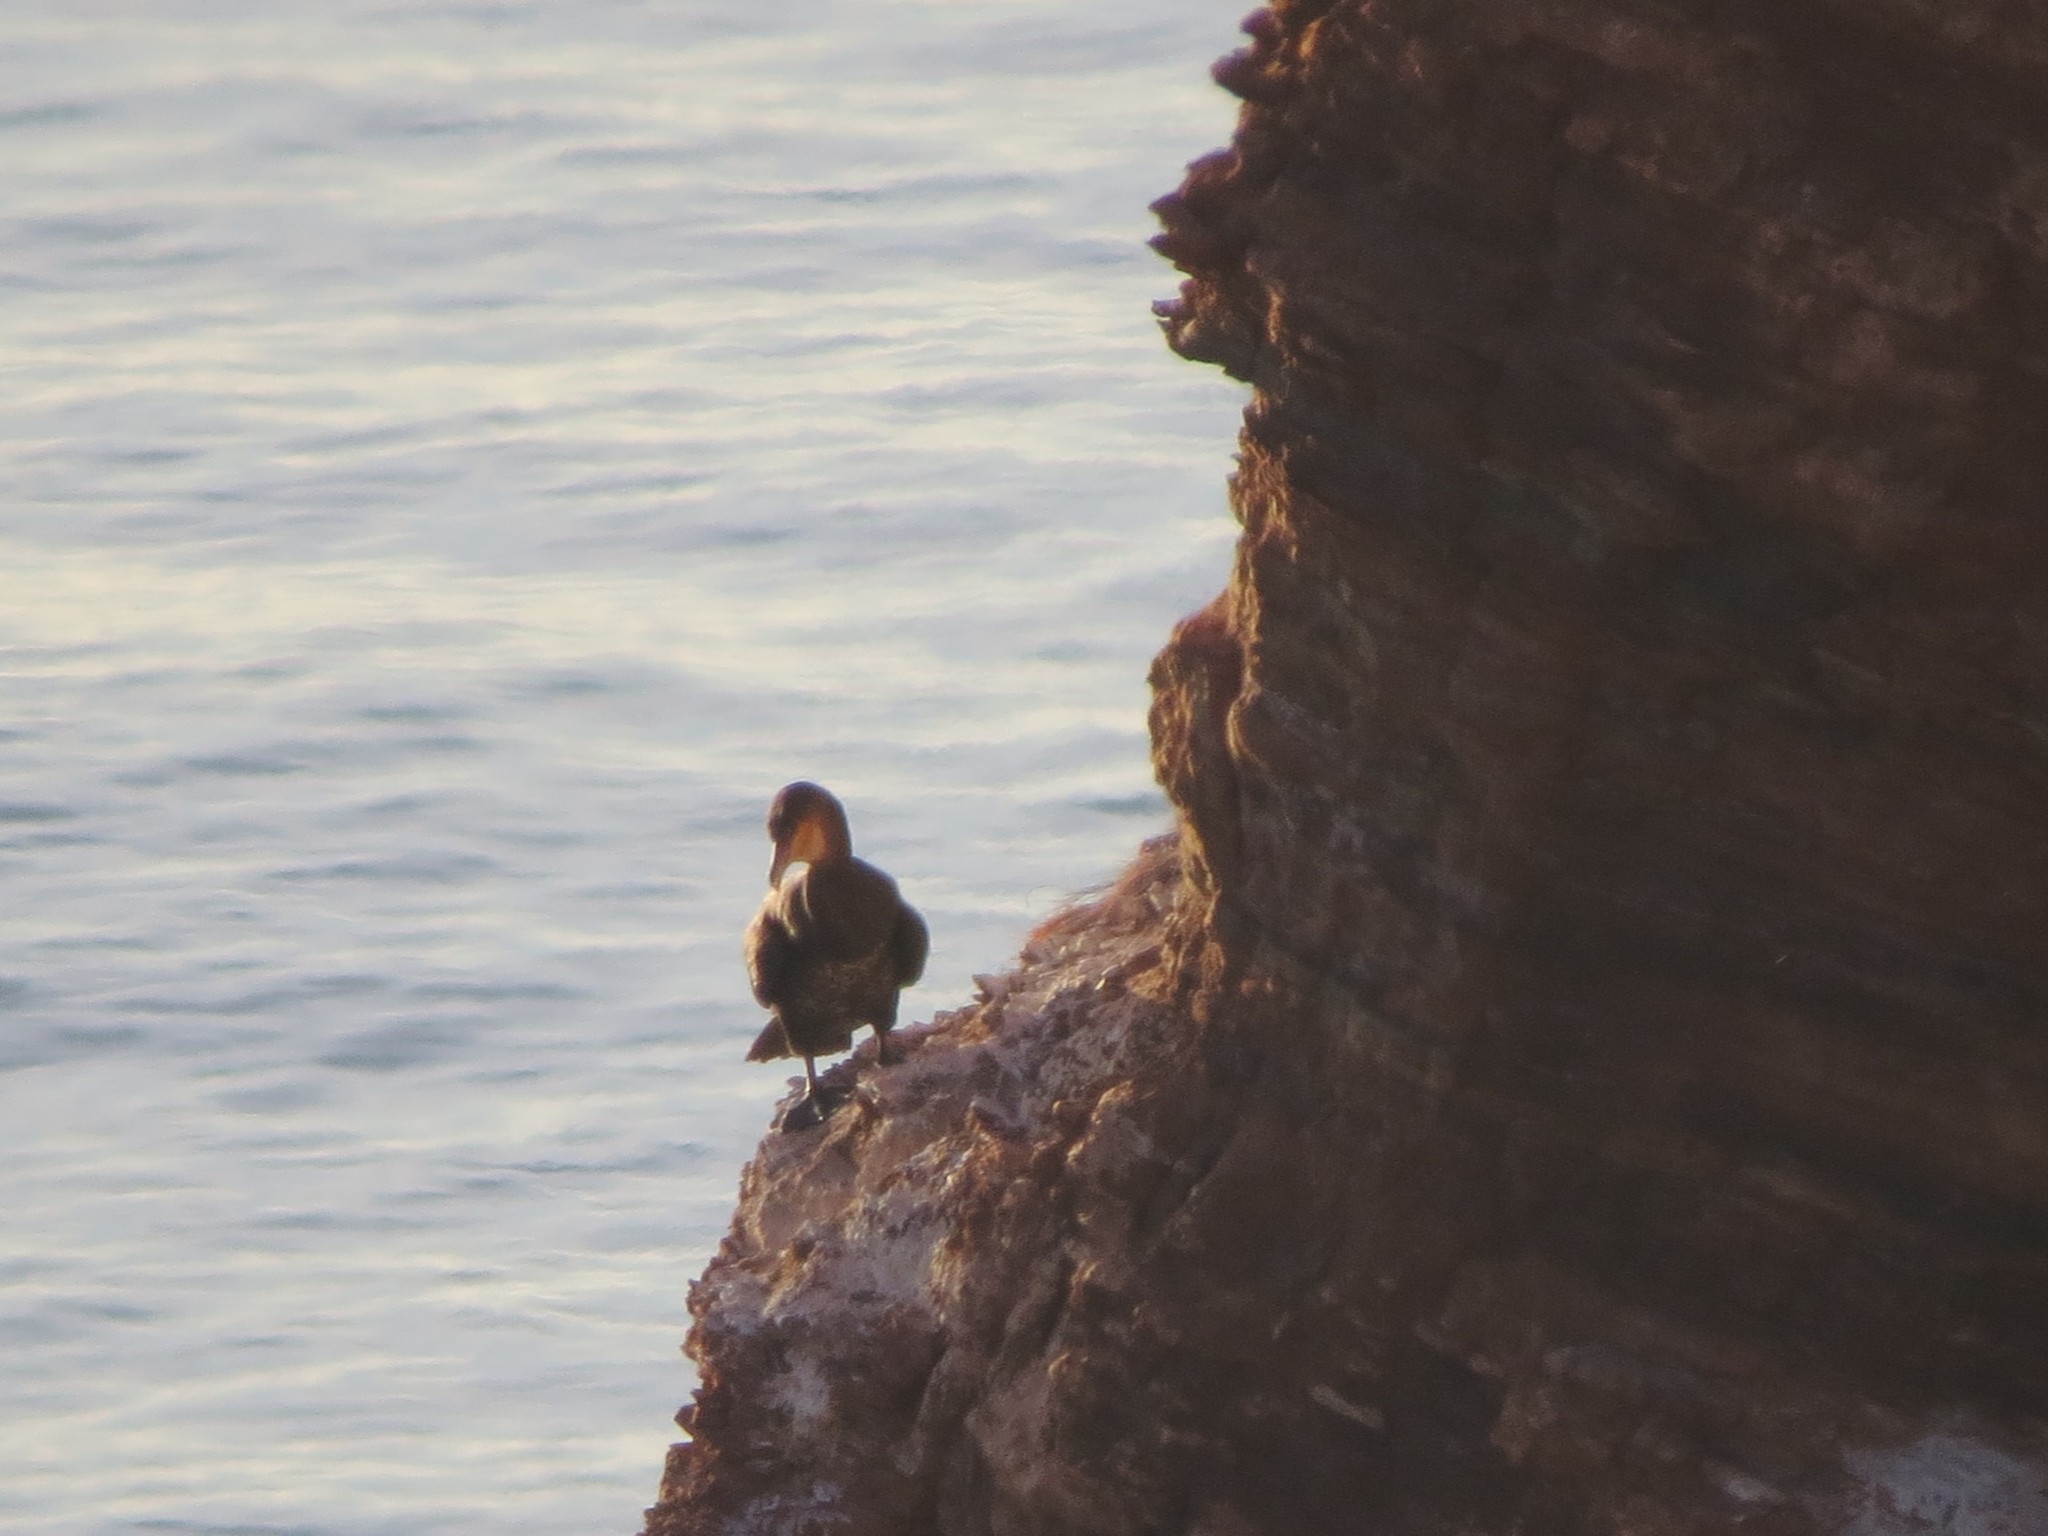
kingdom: Animalia
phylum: Chordata
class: Aves
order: Suliformes
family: Phalacrocoracidae
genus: Phalacrocorax
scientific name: Phalacrocorax carbo
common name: Great cormorant
